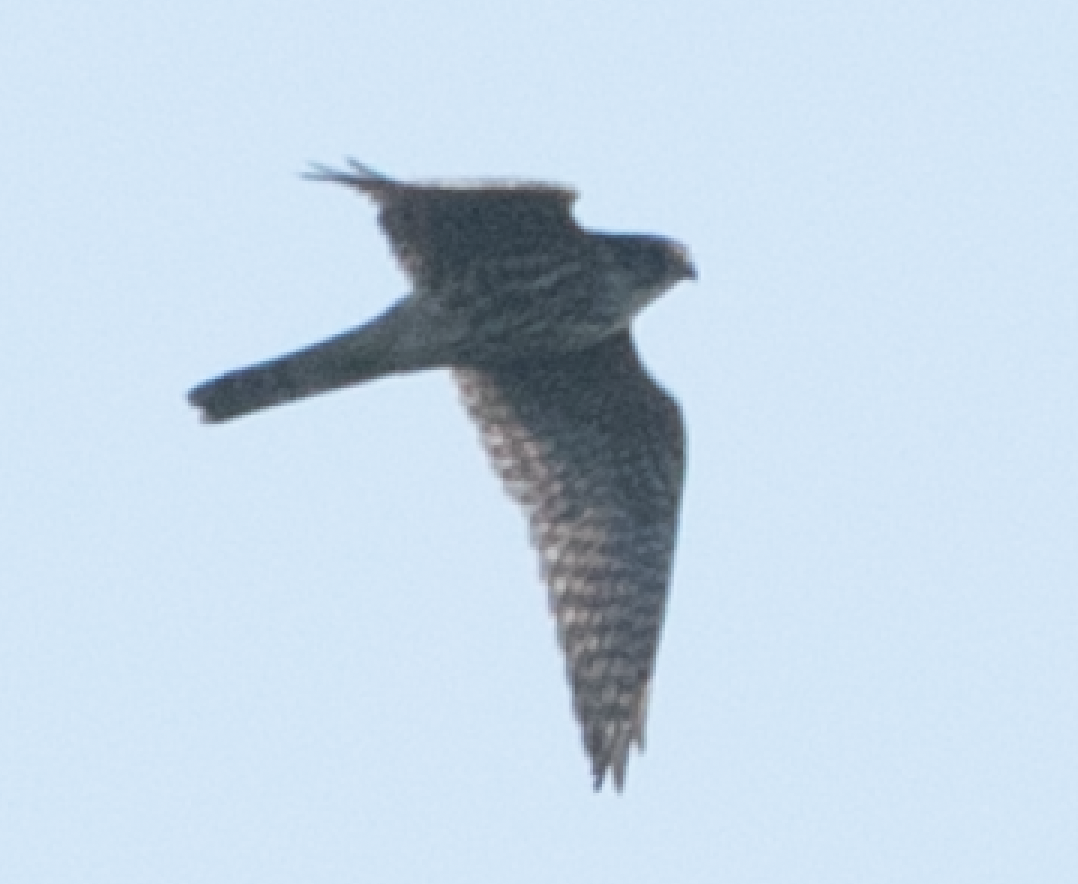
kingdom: Animalia
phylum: Chordata
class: Aves
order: Falconiformes
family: Falconidae
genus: Falco
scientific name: Falco columbarius
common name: Merlin
